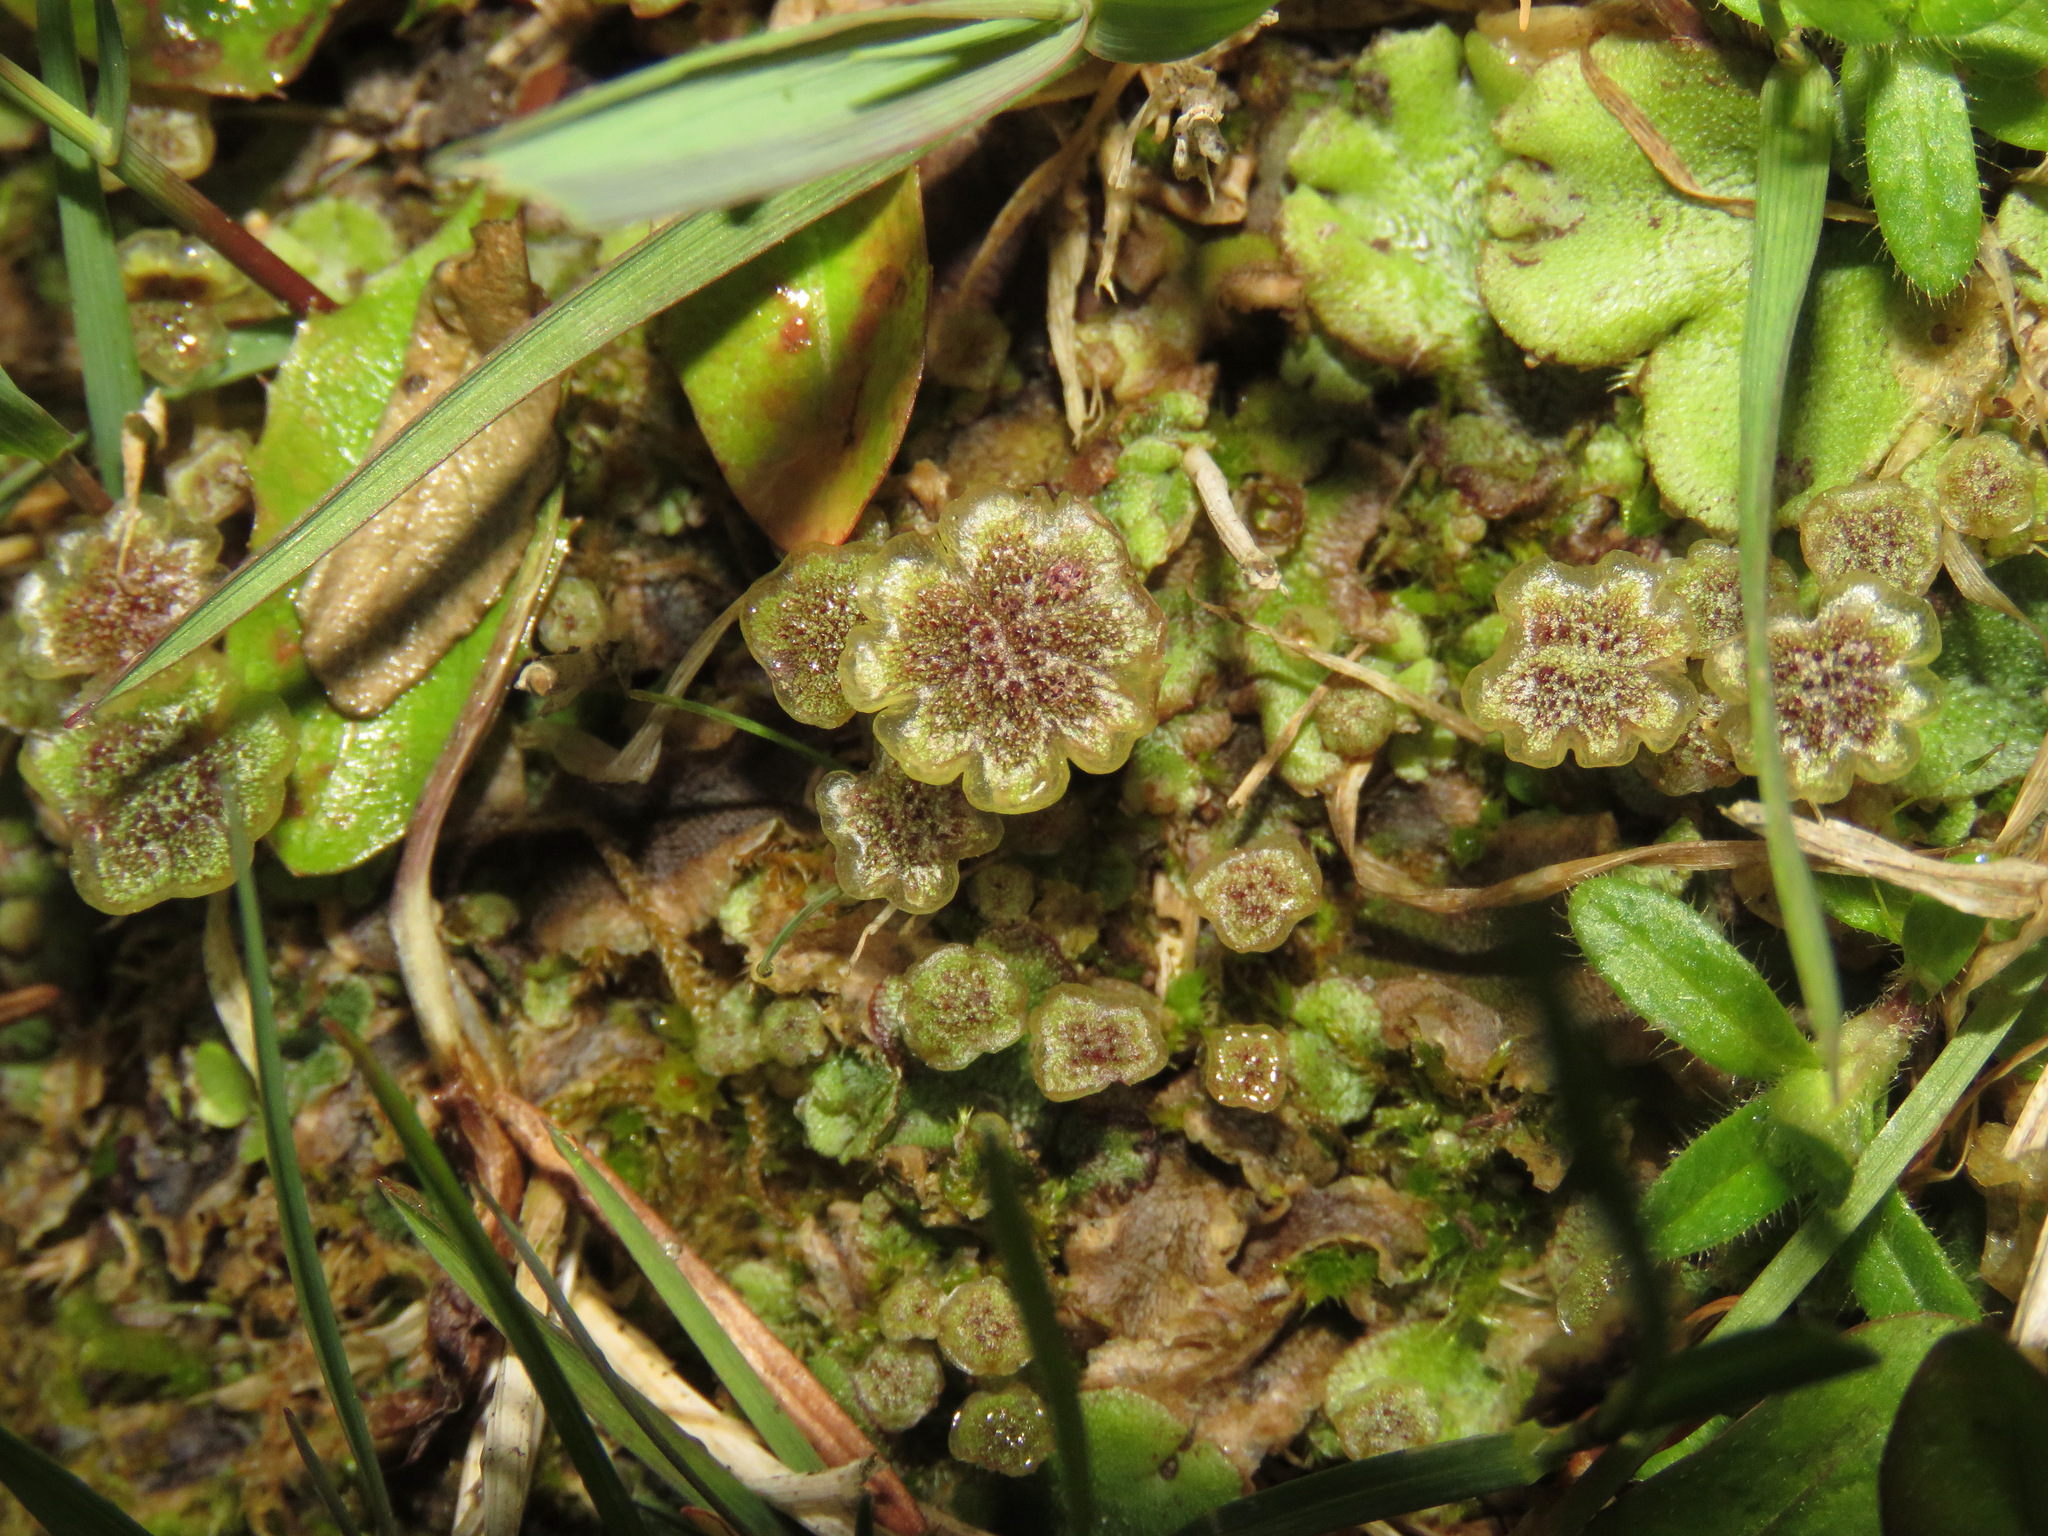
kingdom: Plantae
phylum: Marchantiophyta
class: Marchantiopsida
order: Marchantiales
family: Marchantiaceae
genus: Marchantia
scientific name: Marchantia polymorpha
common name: Common liverwort
